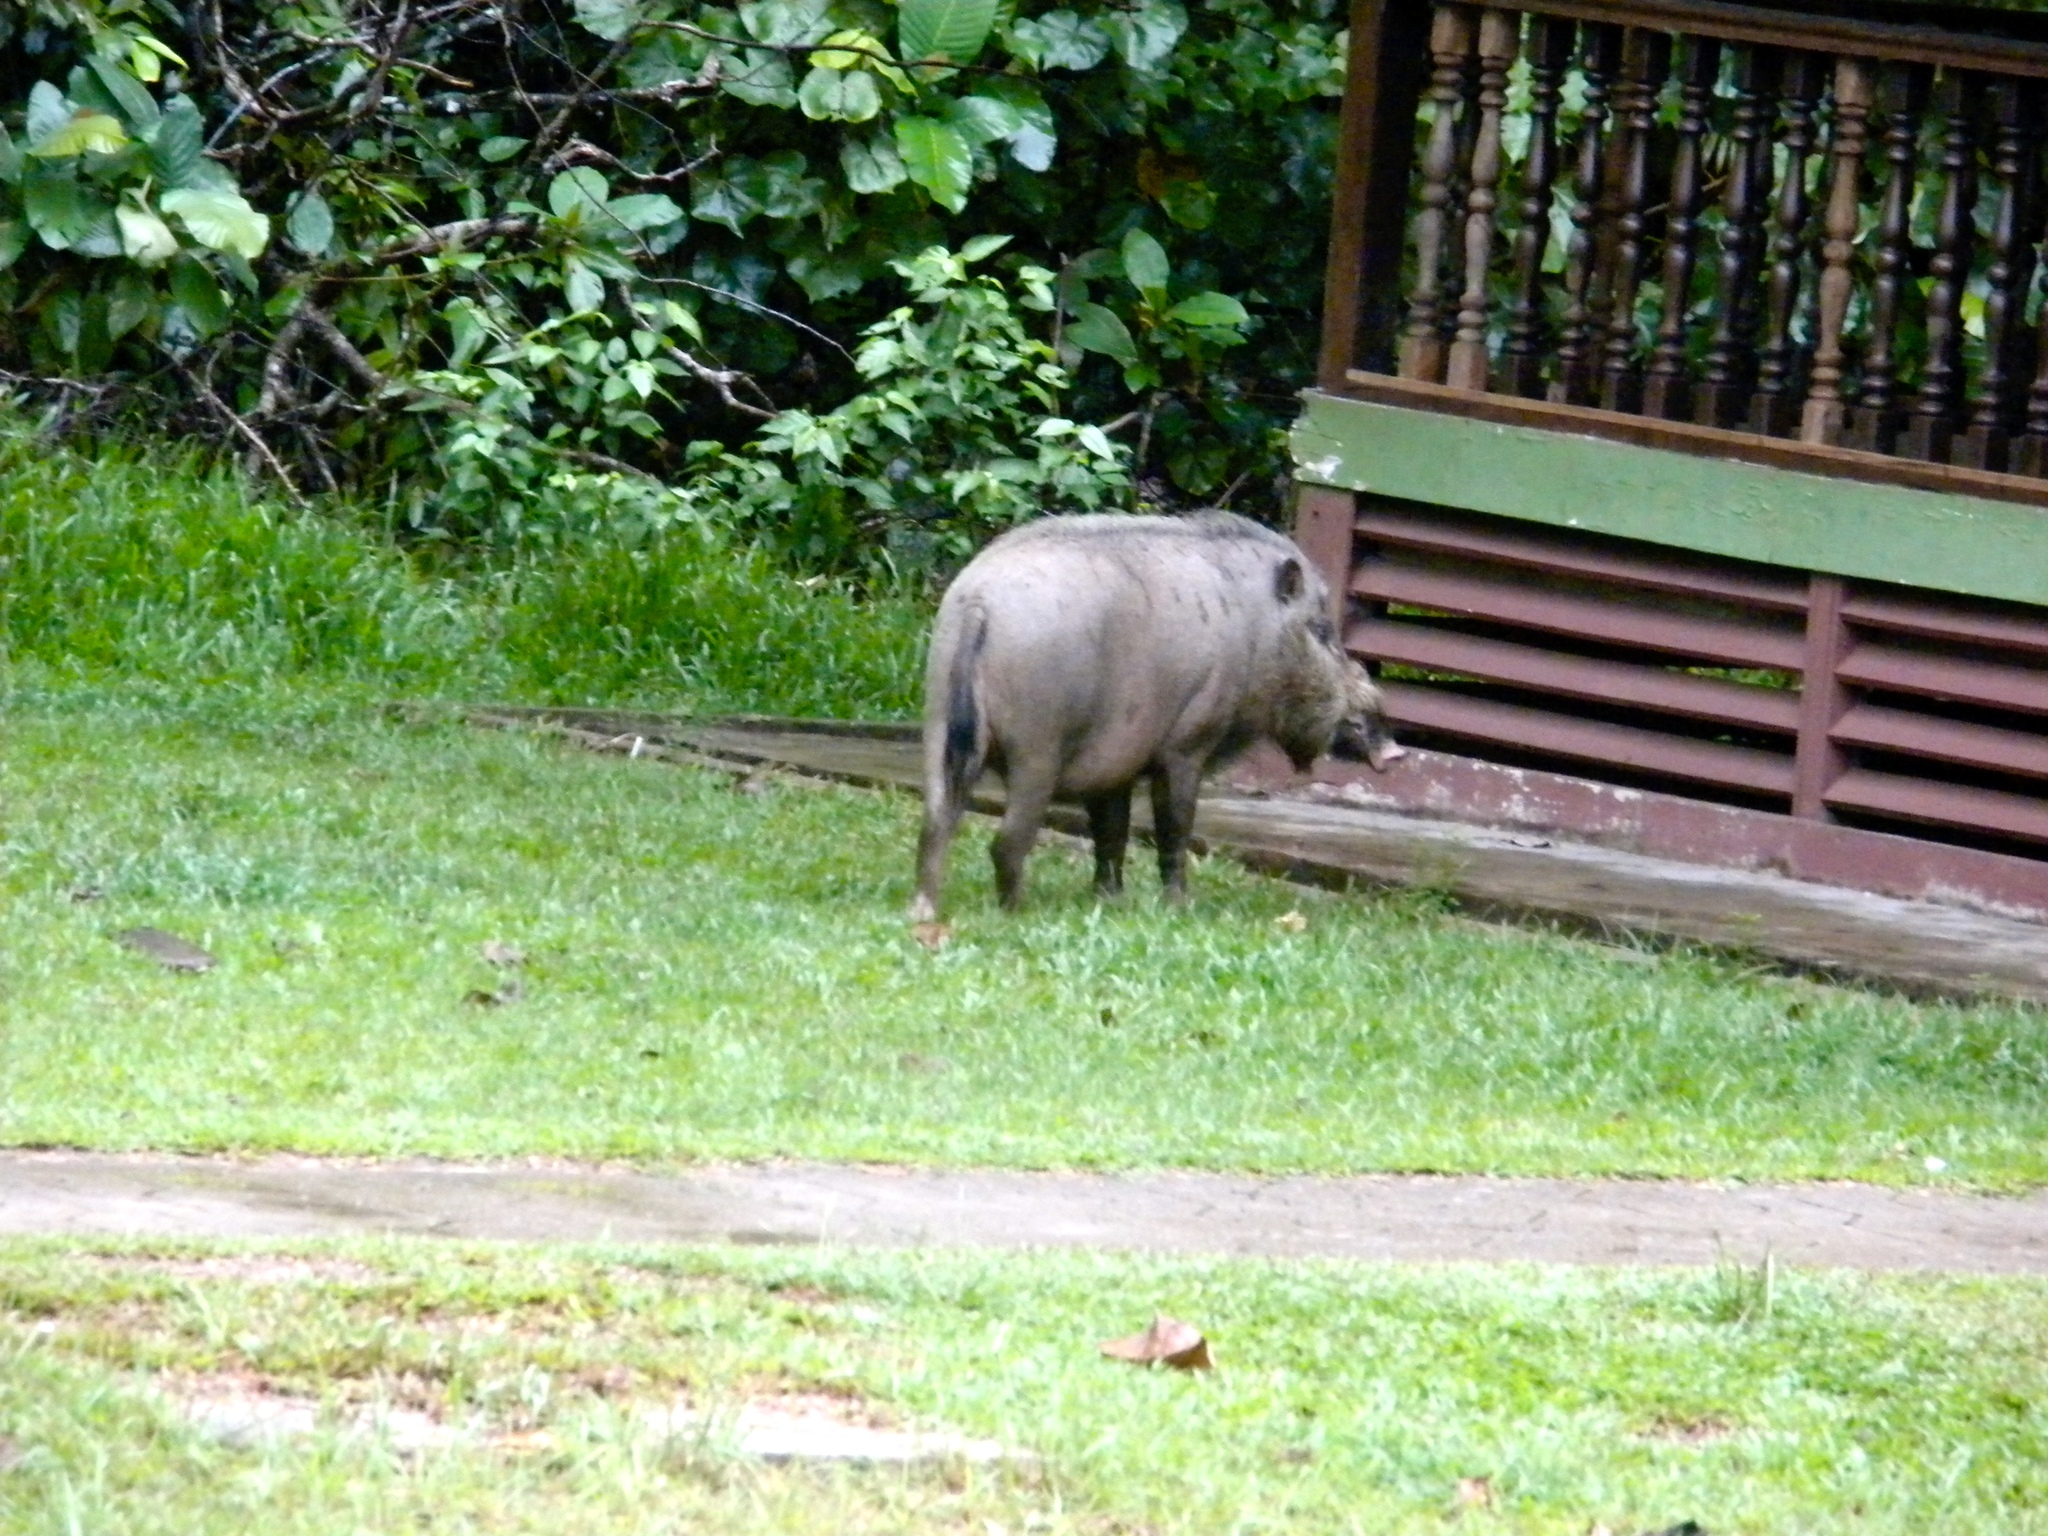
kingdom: Animalia
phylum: Chordata
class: Mammalia
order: Artiodactyla
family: Suidae
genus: Sus
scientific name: Sus barbatus
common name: Bearded pig
